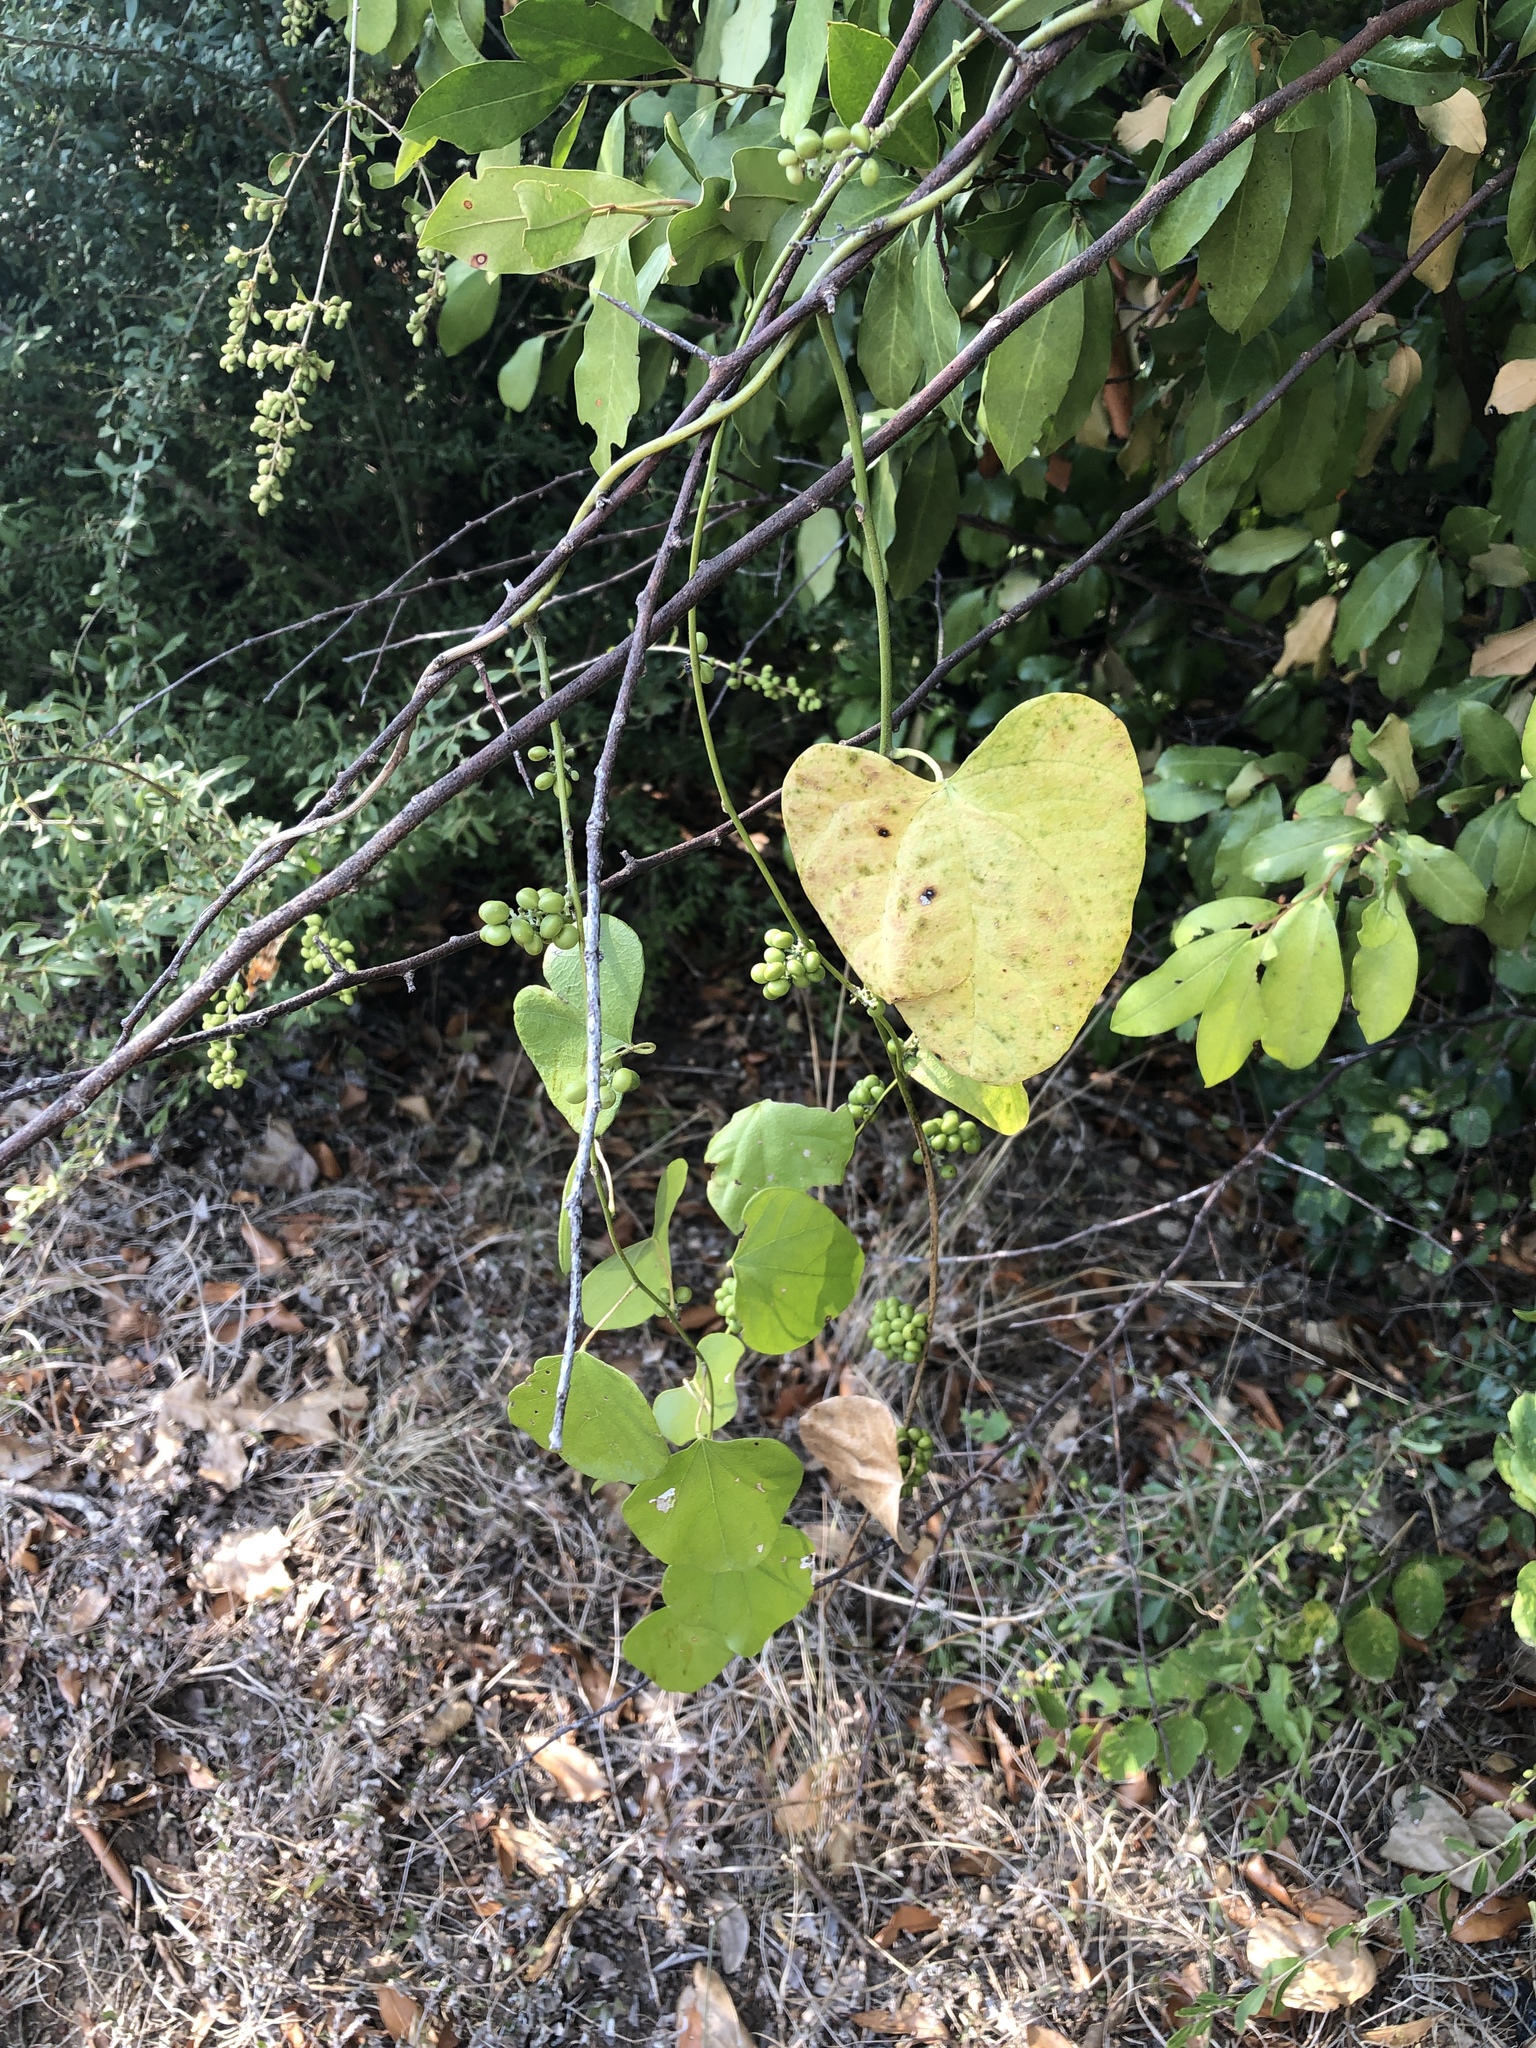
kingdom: Plantae
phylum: Tracheophyta
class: Magnoliopsida
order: Ranunculales
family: Menispermaceae
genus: Cocculus
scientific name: Cocculus carolinus
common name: Carolina moonseed
